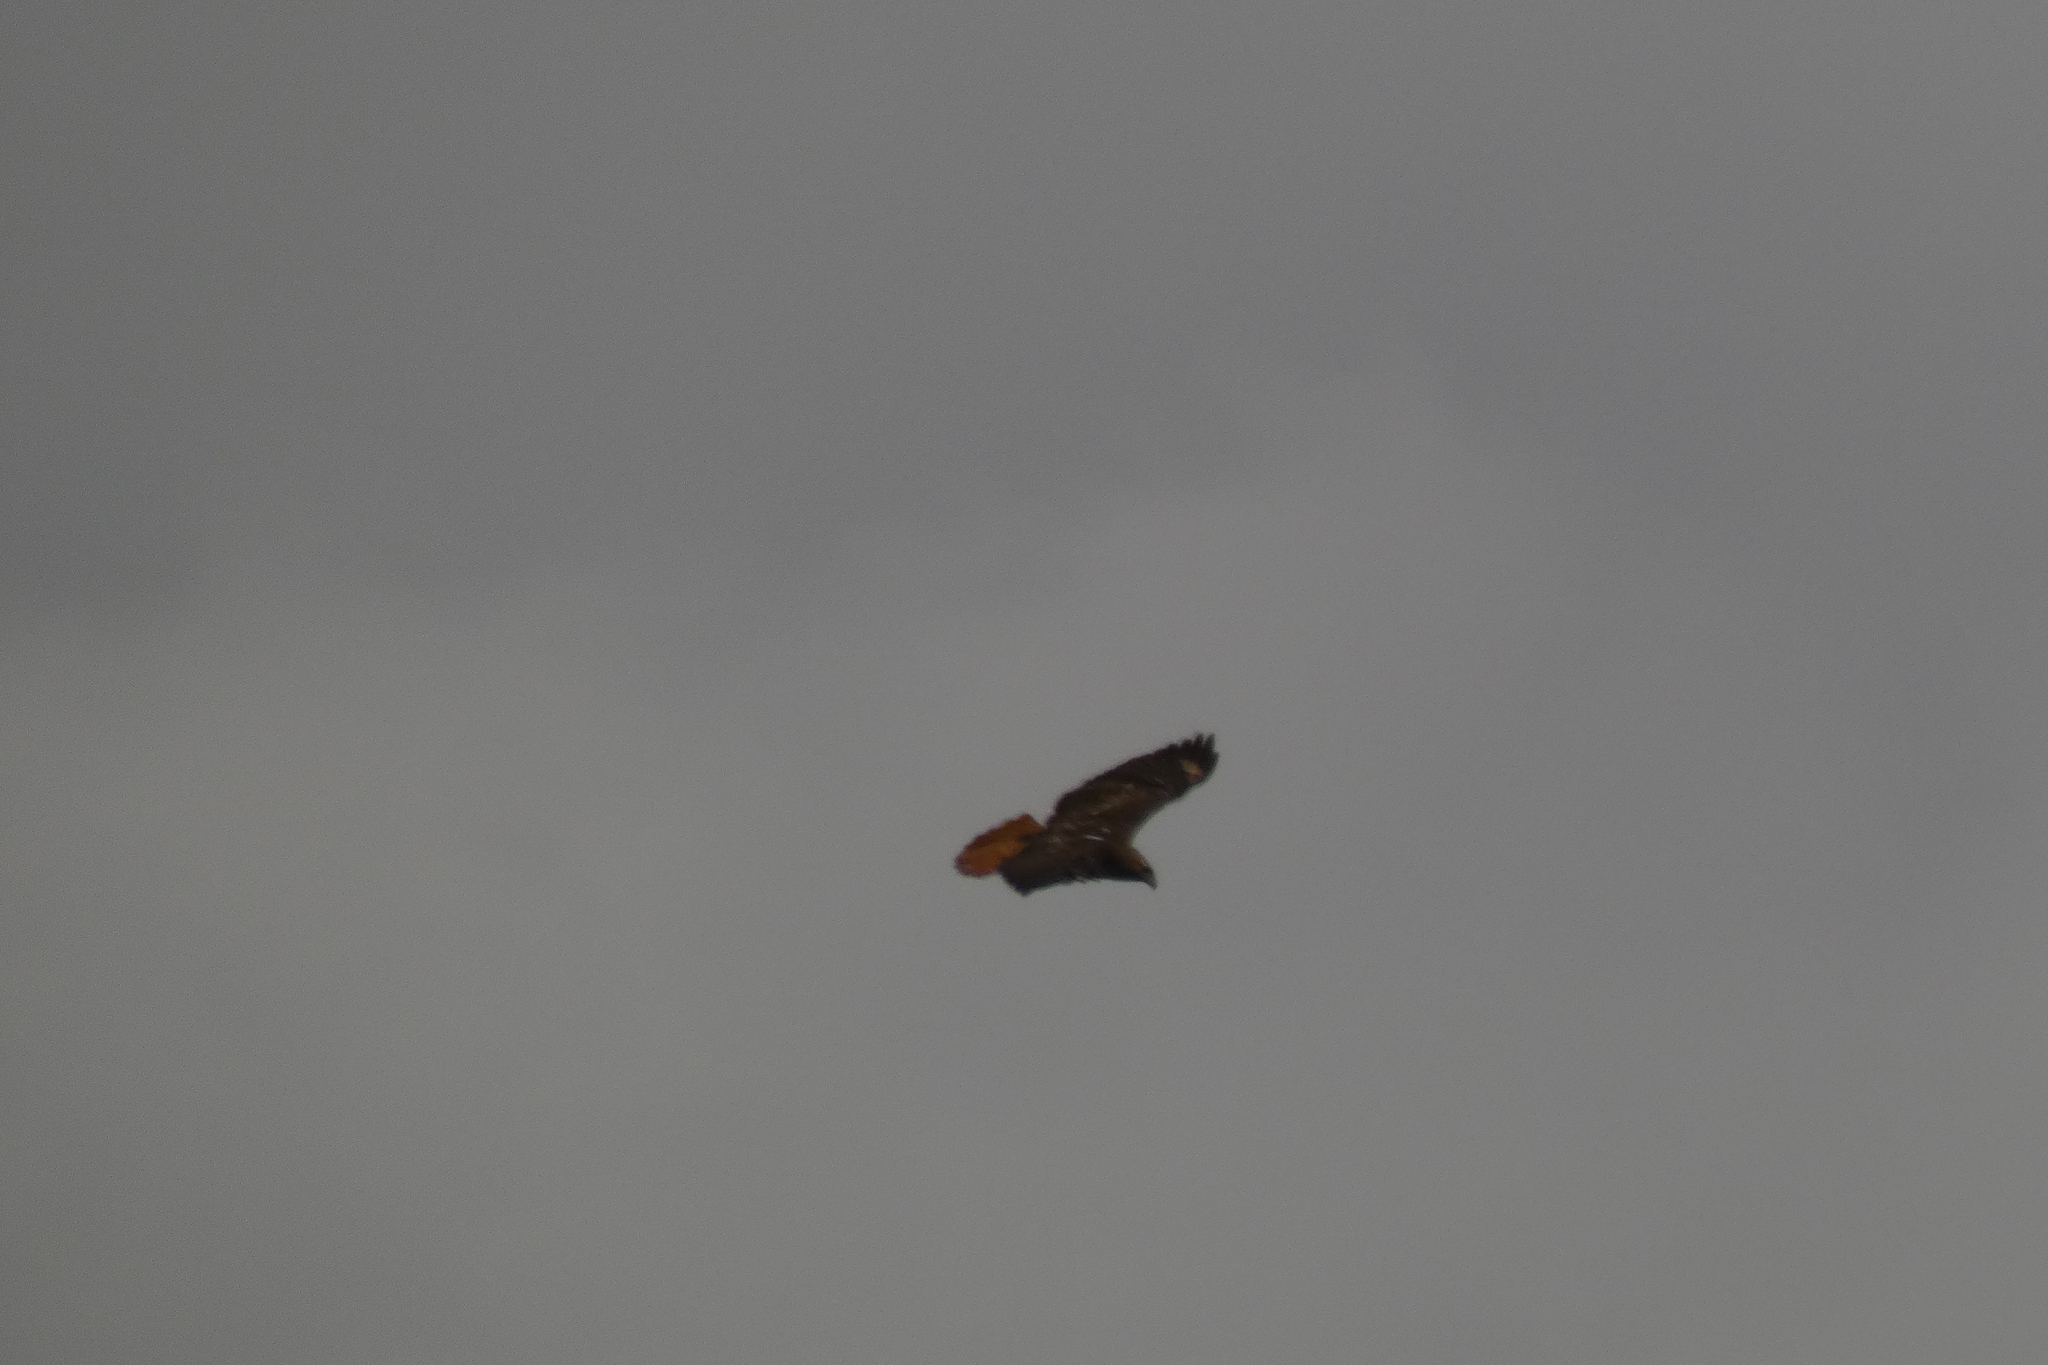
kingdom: Animalia
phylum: Chordata
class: Aves
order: Accipitriformes
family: Accipitridae
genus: Buteo
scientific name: Buteo jamaicensis
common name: Red-tailed hawk
